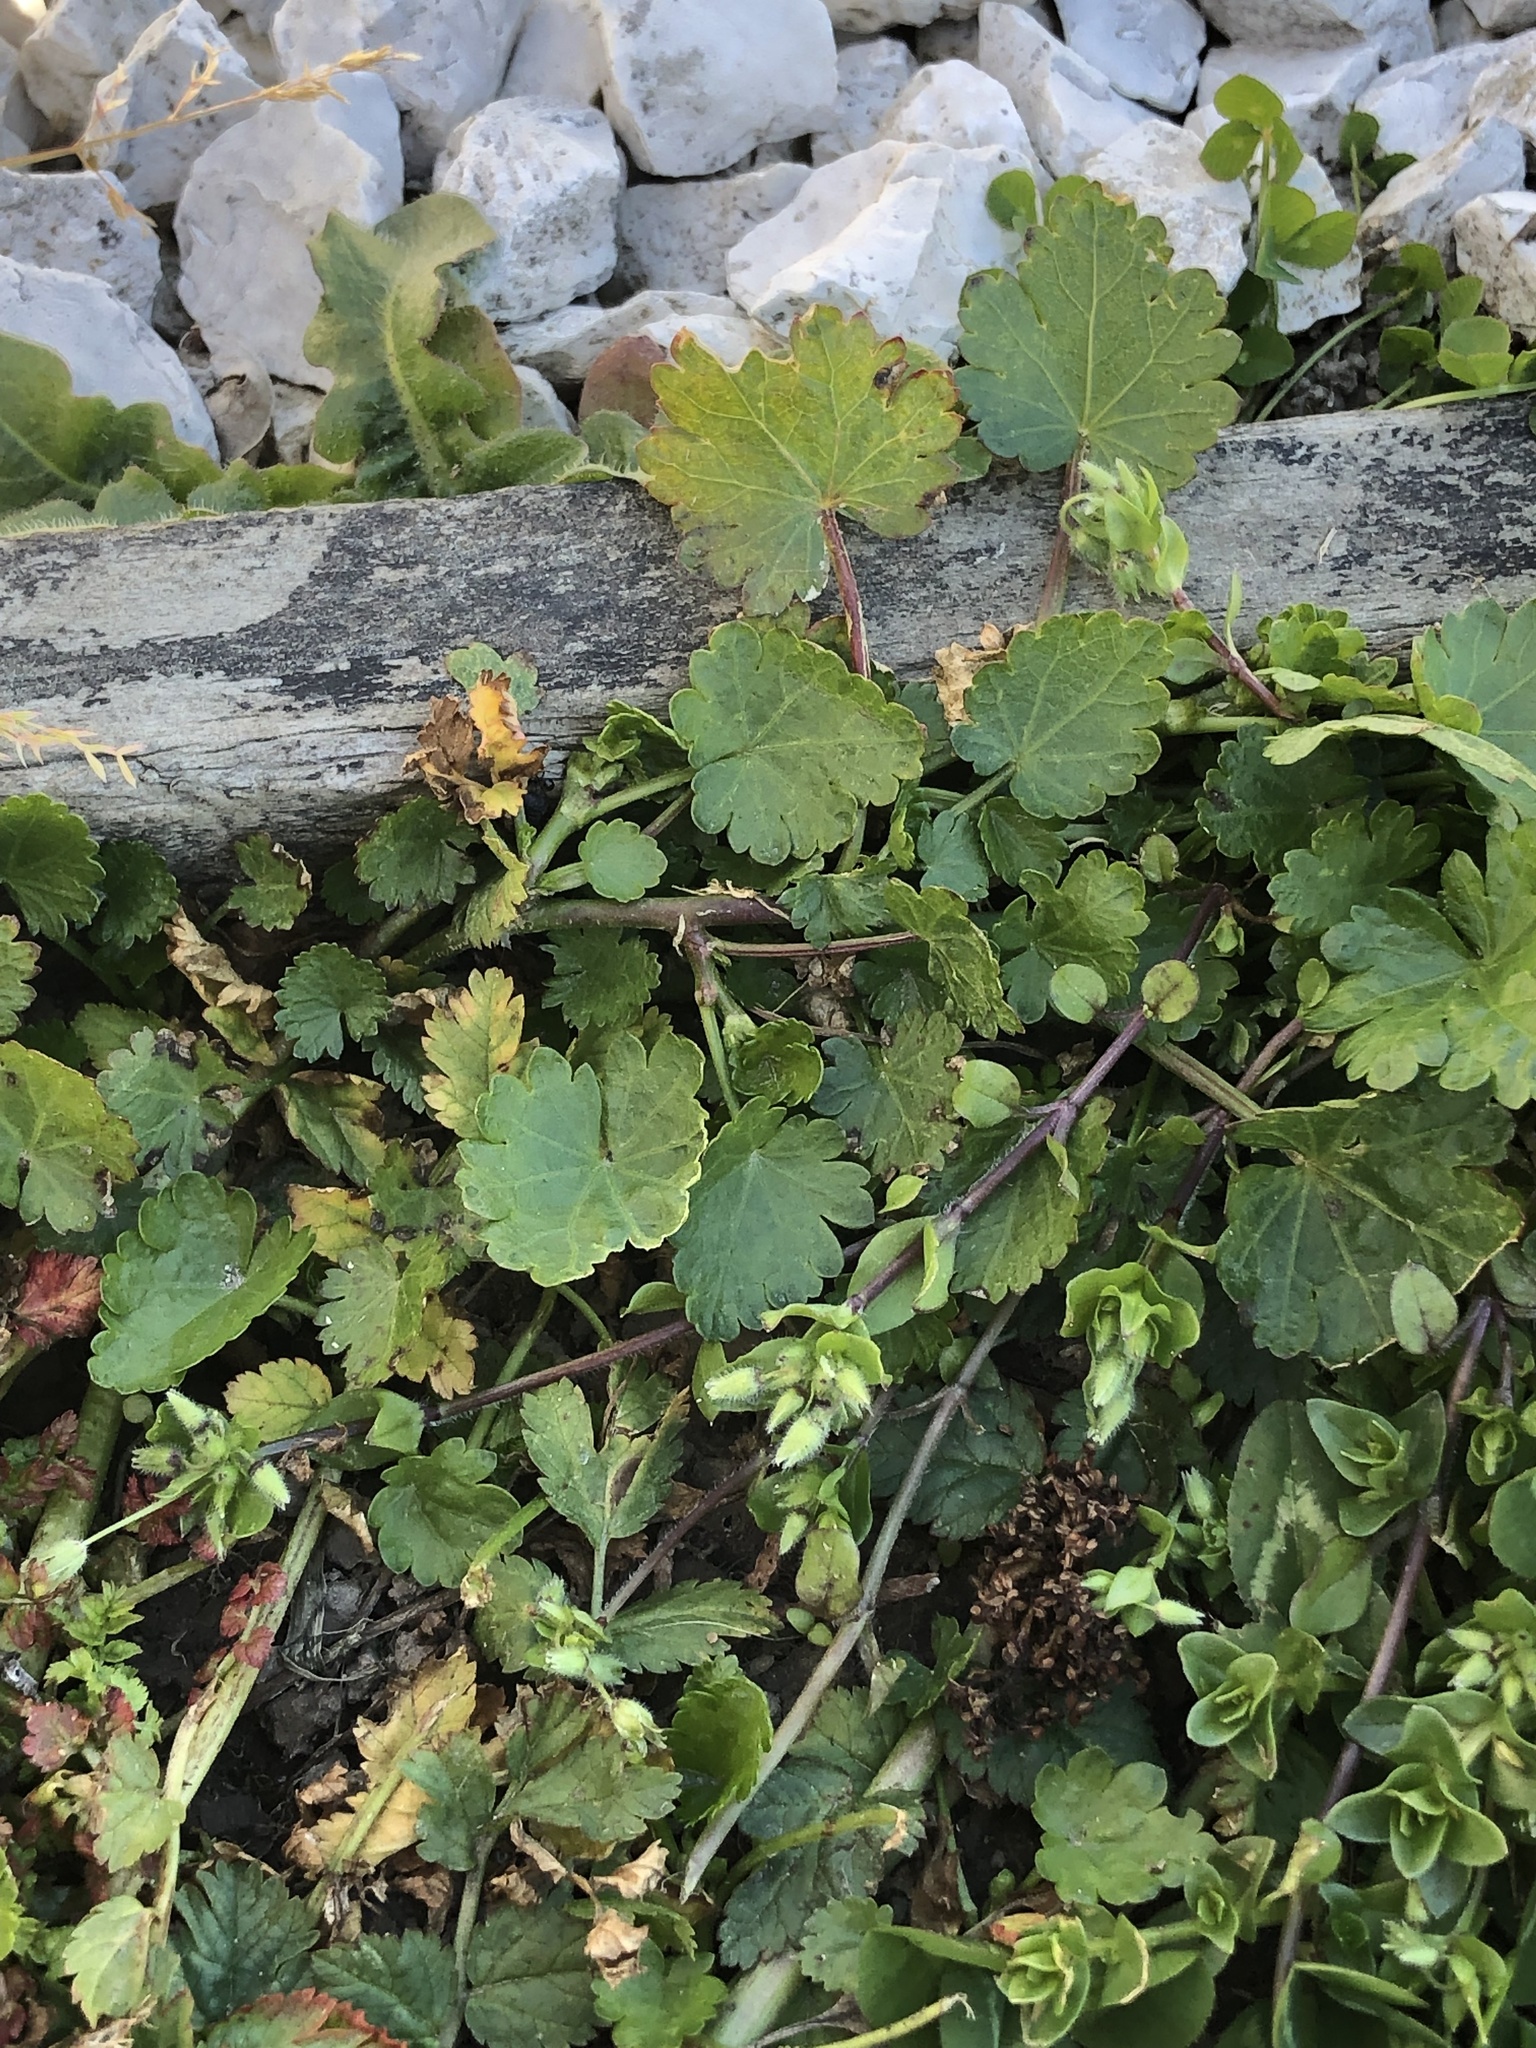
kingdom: Plantae
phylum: Tracheophyta
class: Magnoliopsida
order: Malvales
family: Malvaceae
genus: Modiola
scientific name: Modiola caroliniana
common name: Carolina bristlemallow
